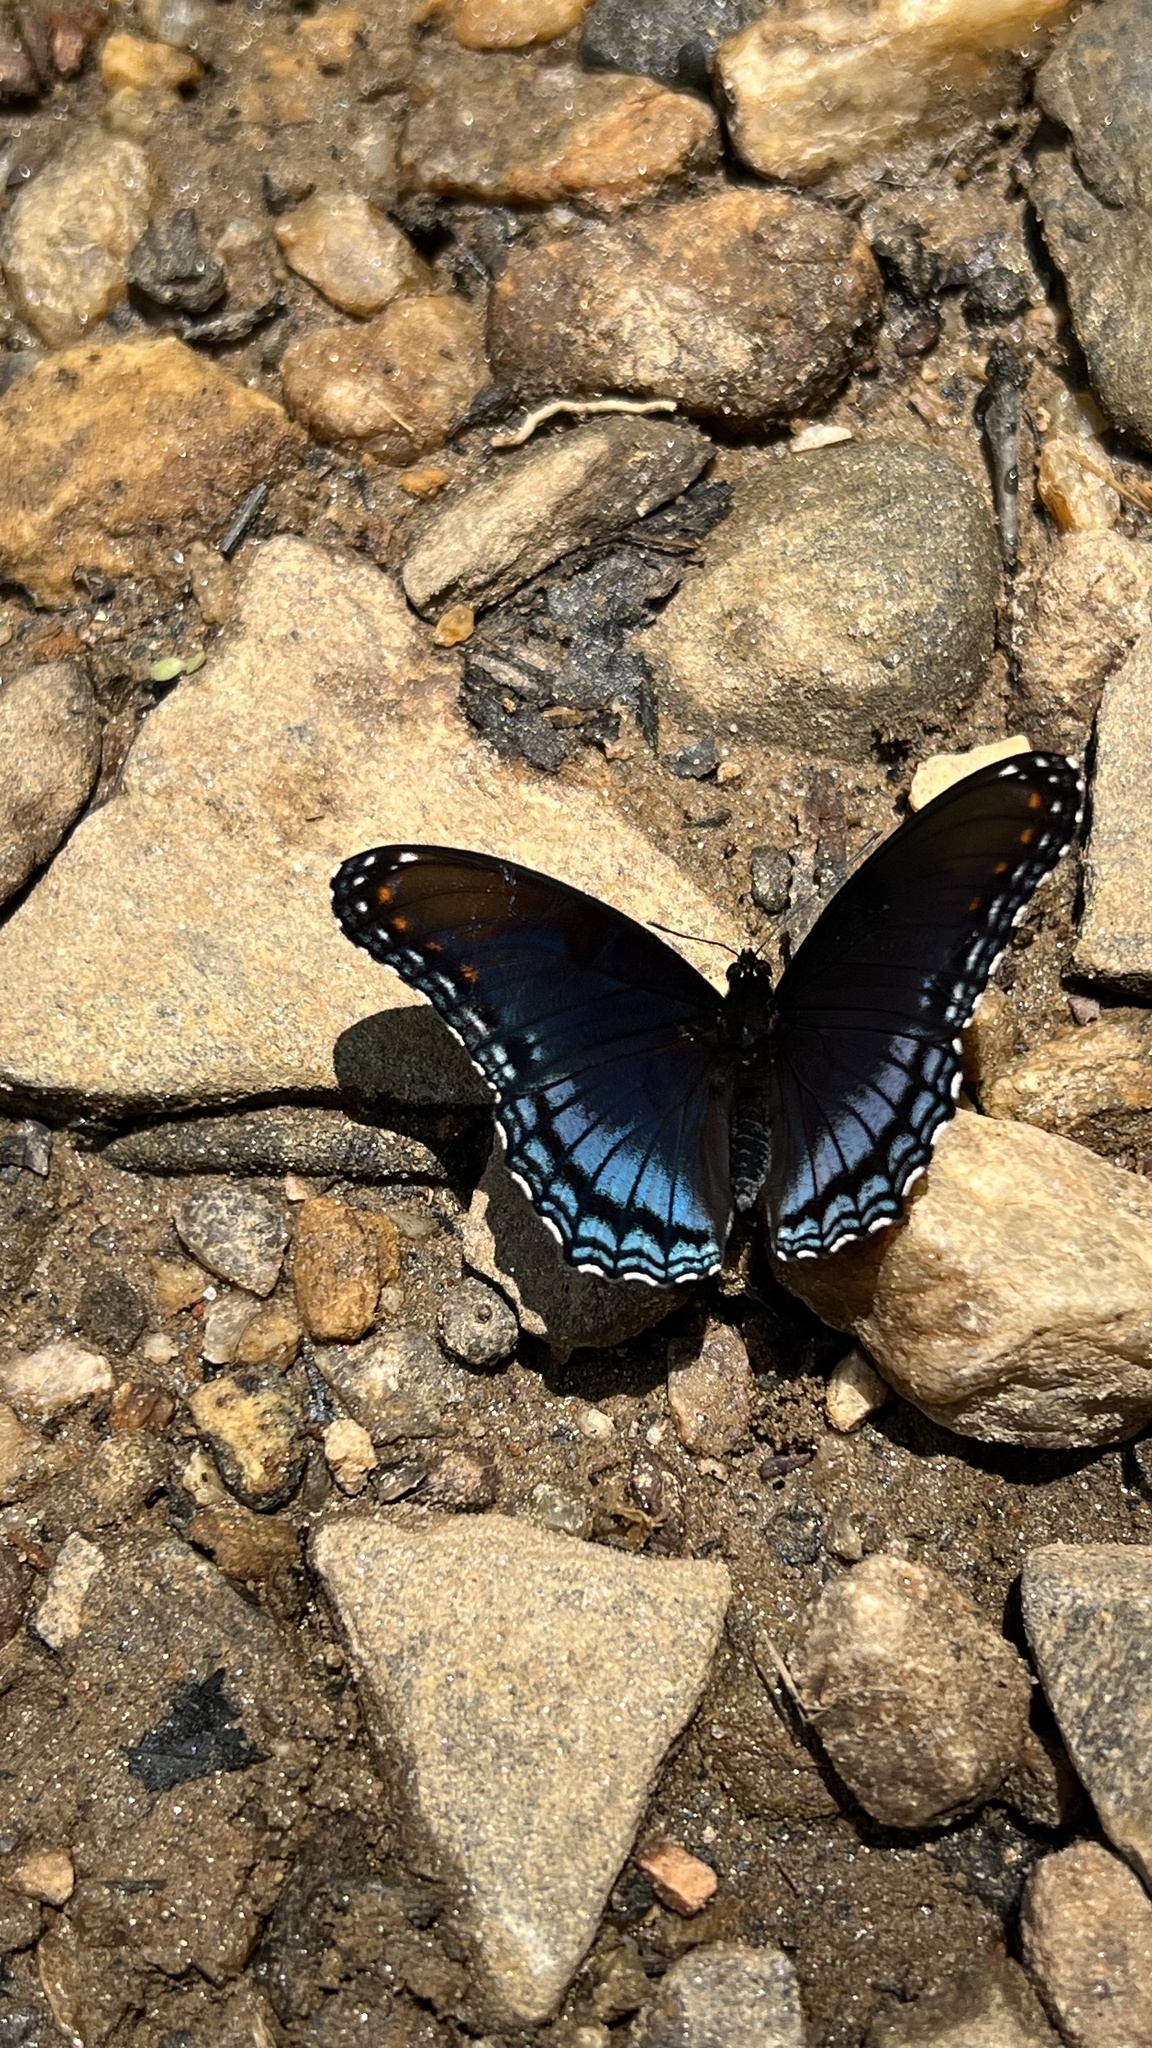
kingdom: Animalia
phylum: Arthropoda
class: Insecta
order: Lepidoptera
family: Nymphalidae
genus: Limenitis
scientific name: Limenitis astyanax
